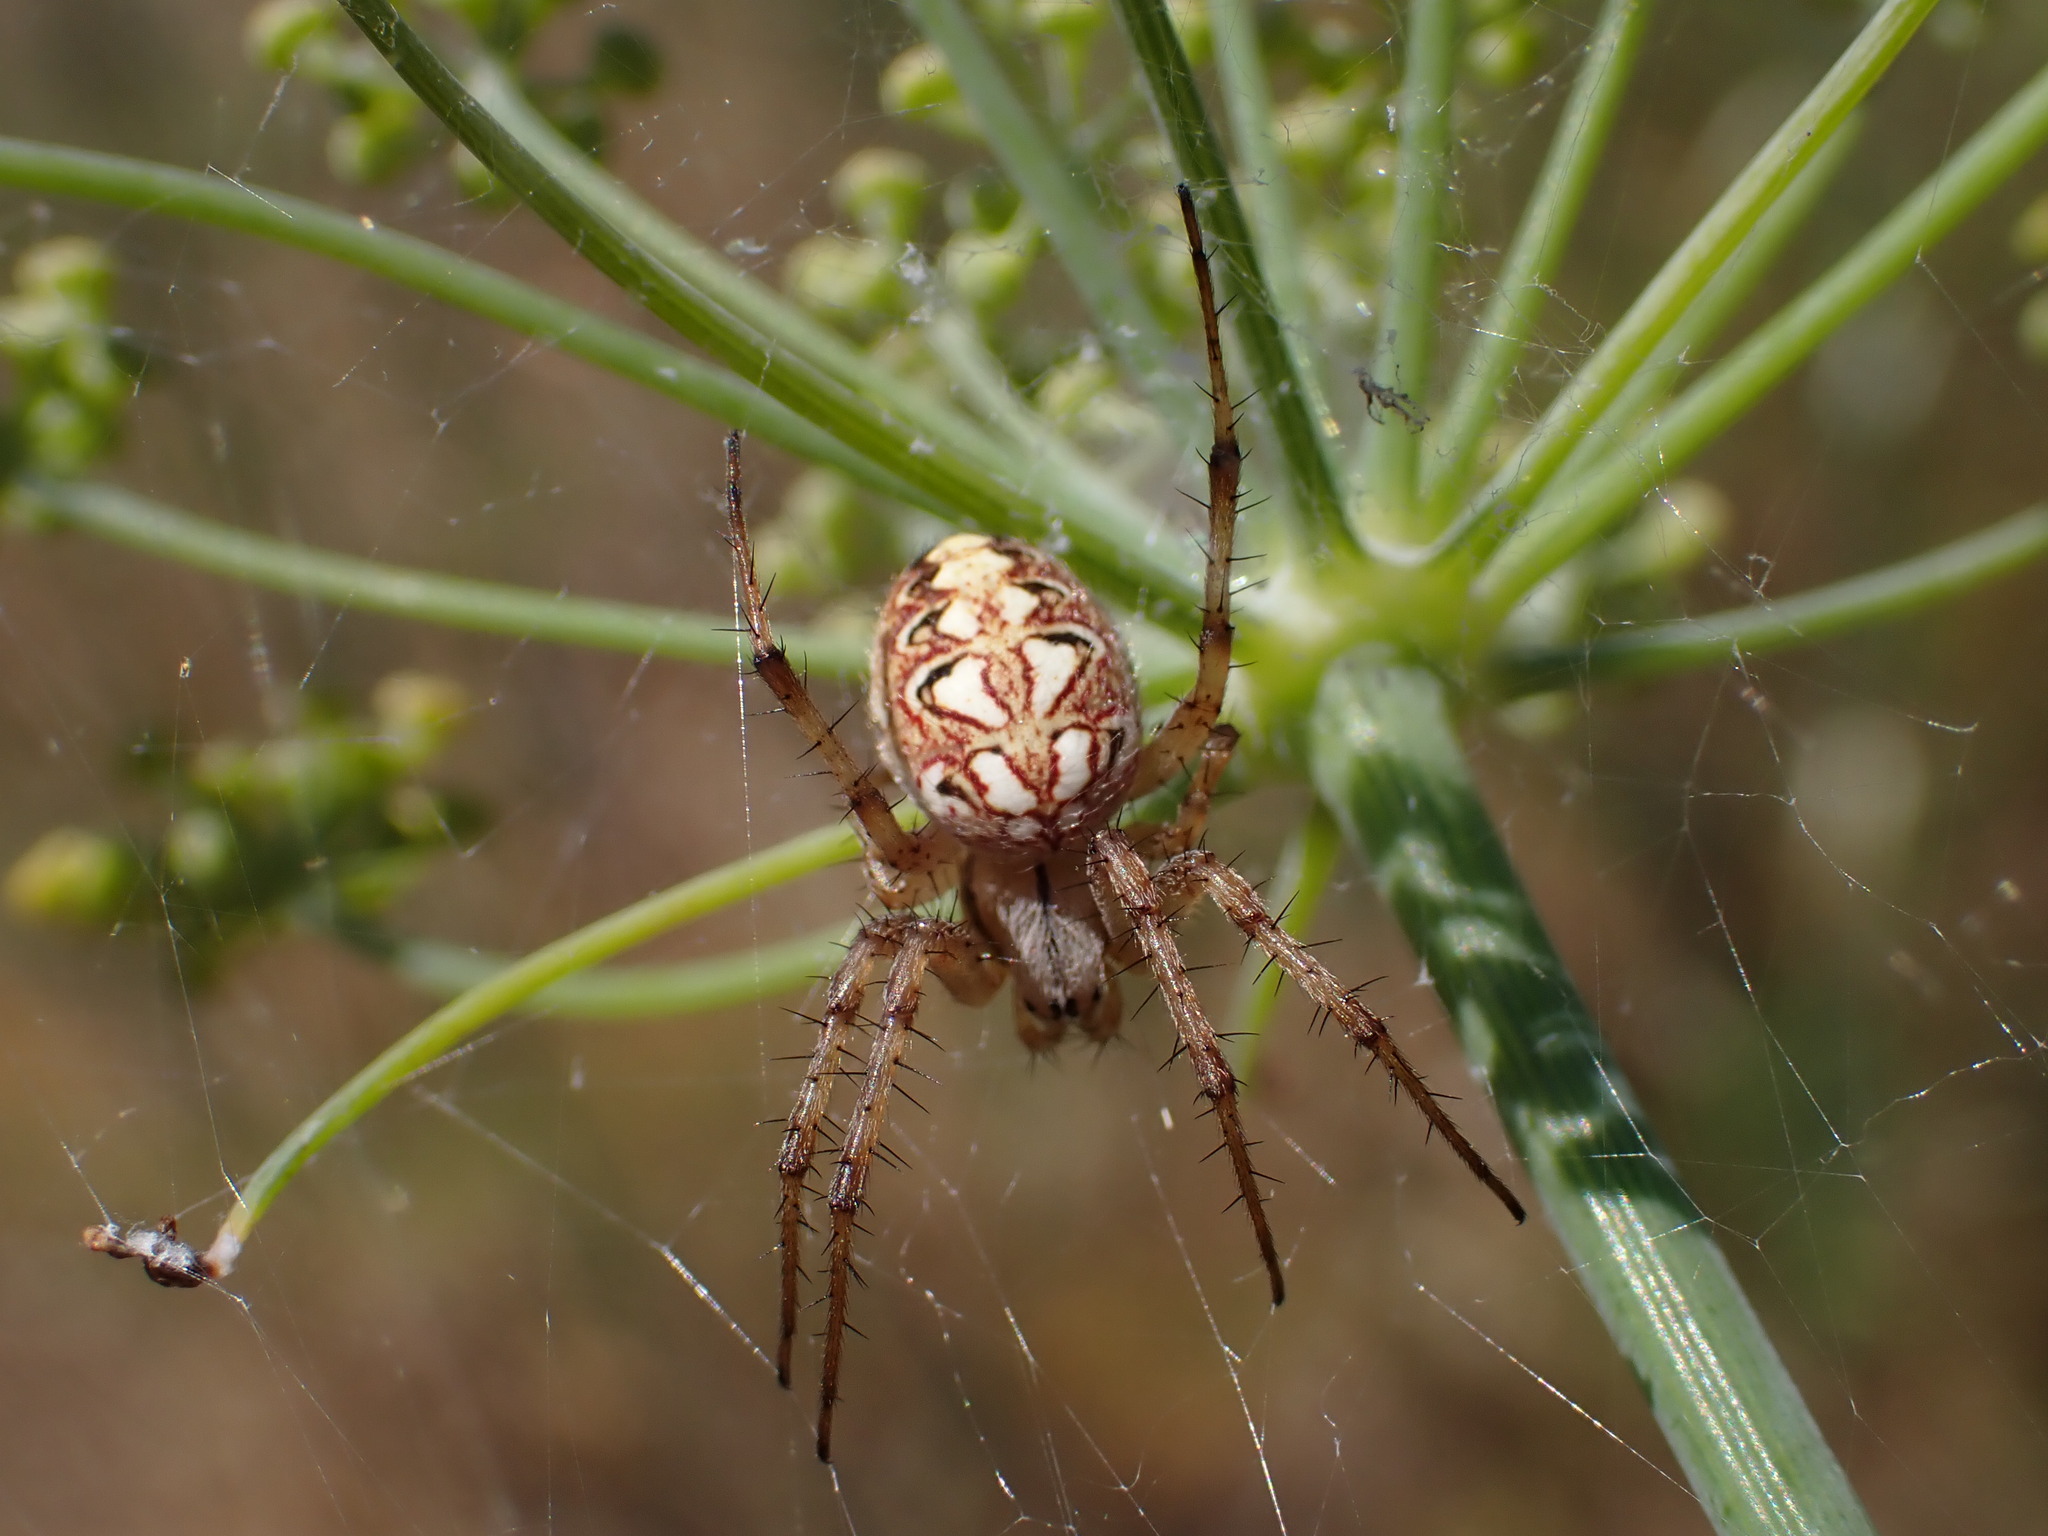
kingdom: Animalia
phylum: Arthropoda
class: Arachnida
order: Araneae
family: Araneidae
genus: Neoscona
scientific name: Neoscona adianta
